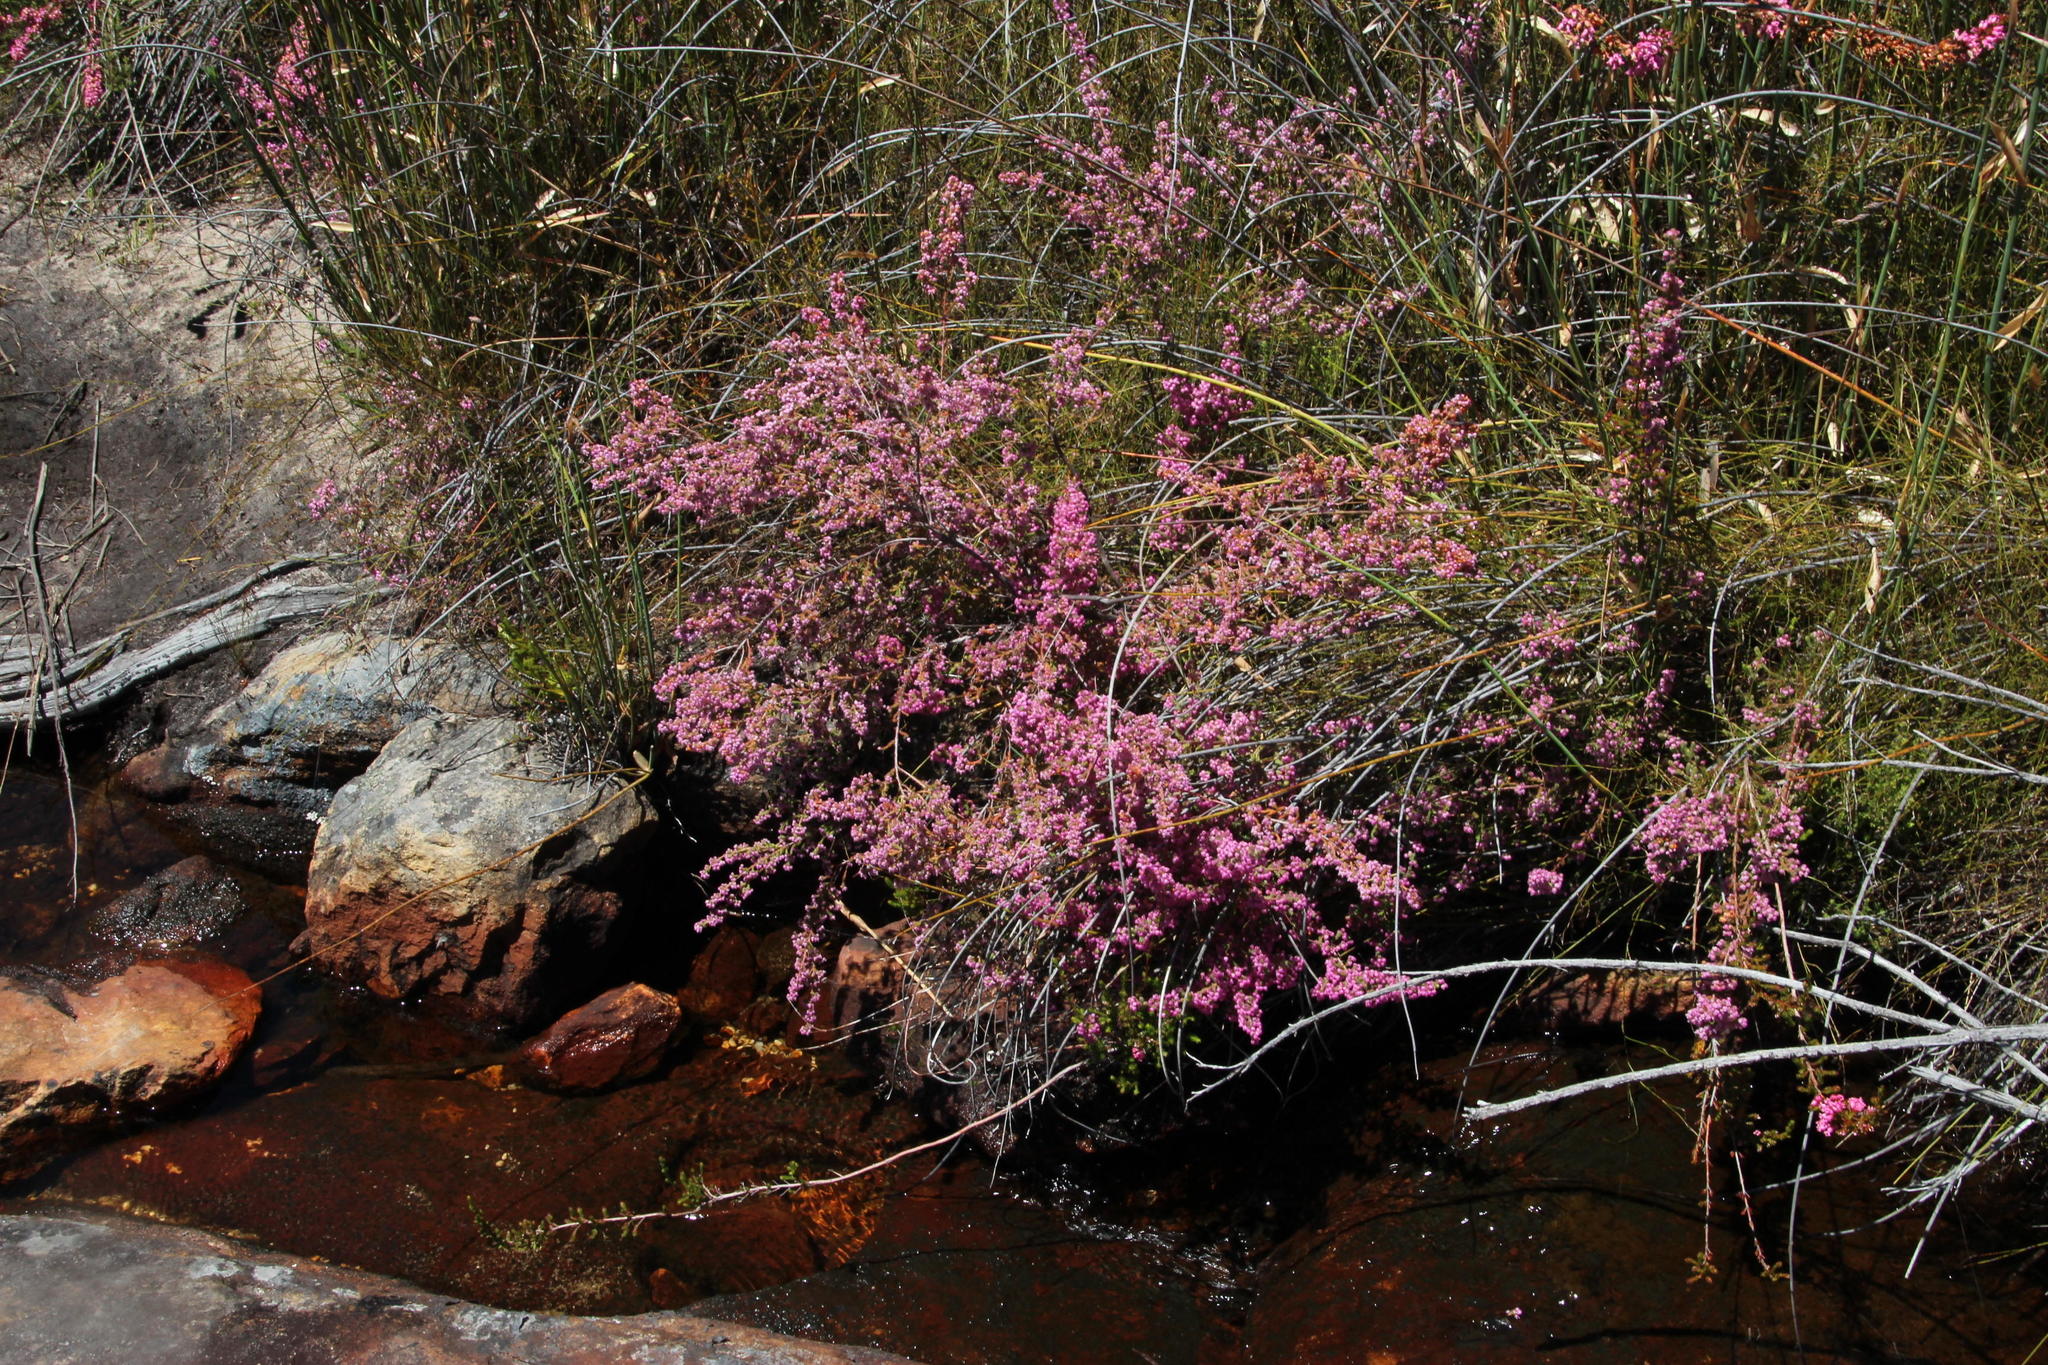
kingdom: Plantae
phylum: Tracheophyta
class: Magnoliopsida
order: Ericales
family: Ericaceae
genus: Erica
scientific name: Erica bergiana
